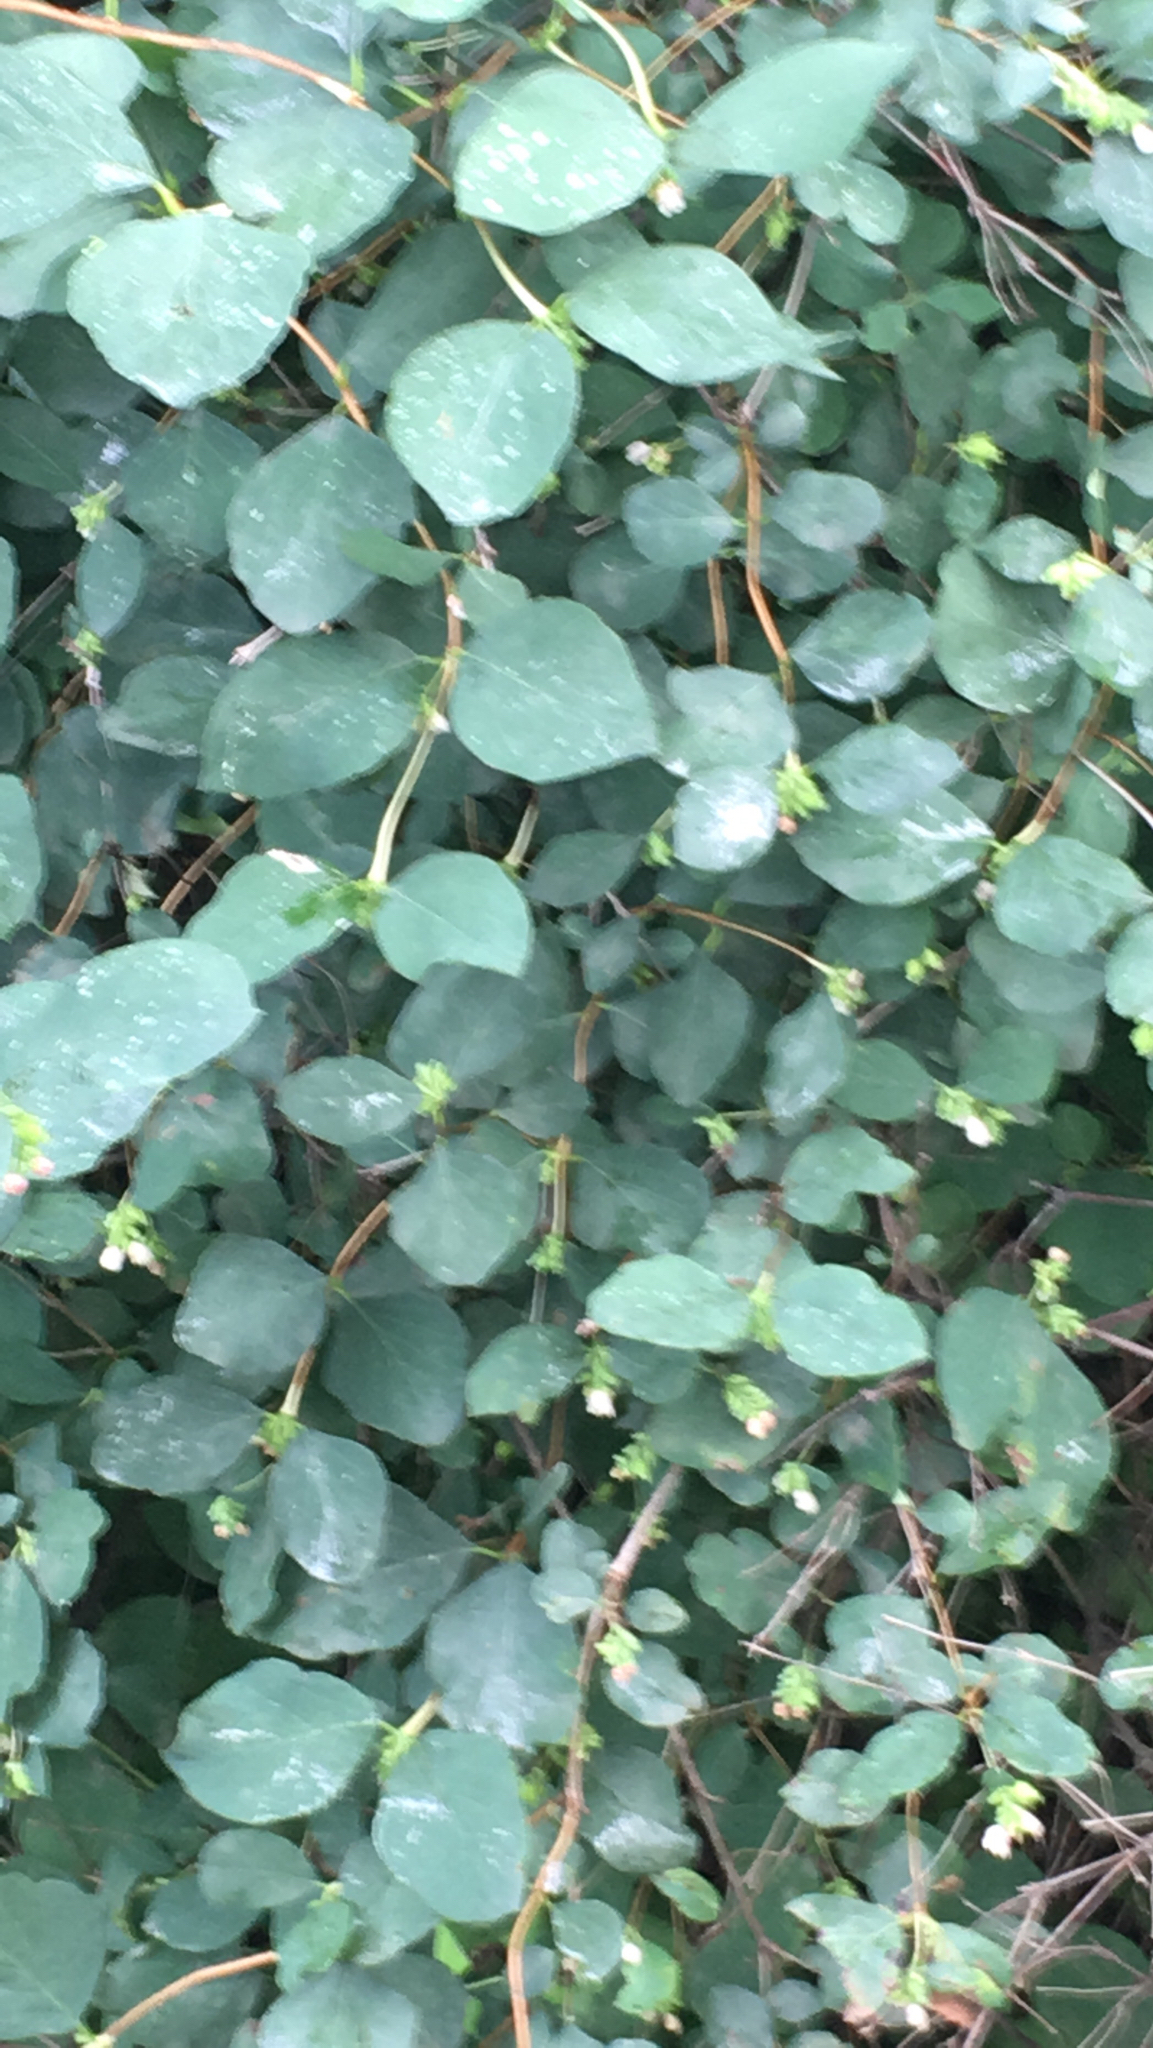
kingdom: Plantae
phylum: Tracheophyta
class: Magnoliopsida
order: Dipsacales
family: Caprifoliaceae
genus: Symphoricarpos
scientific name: Symphoricarpos albus
